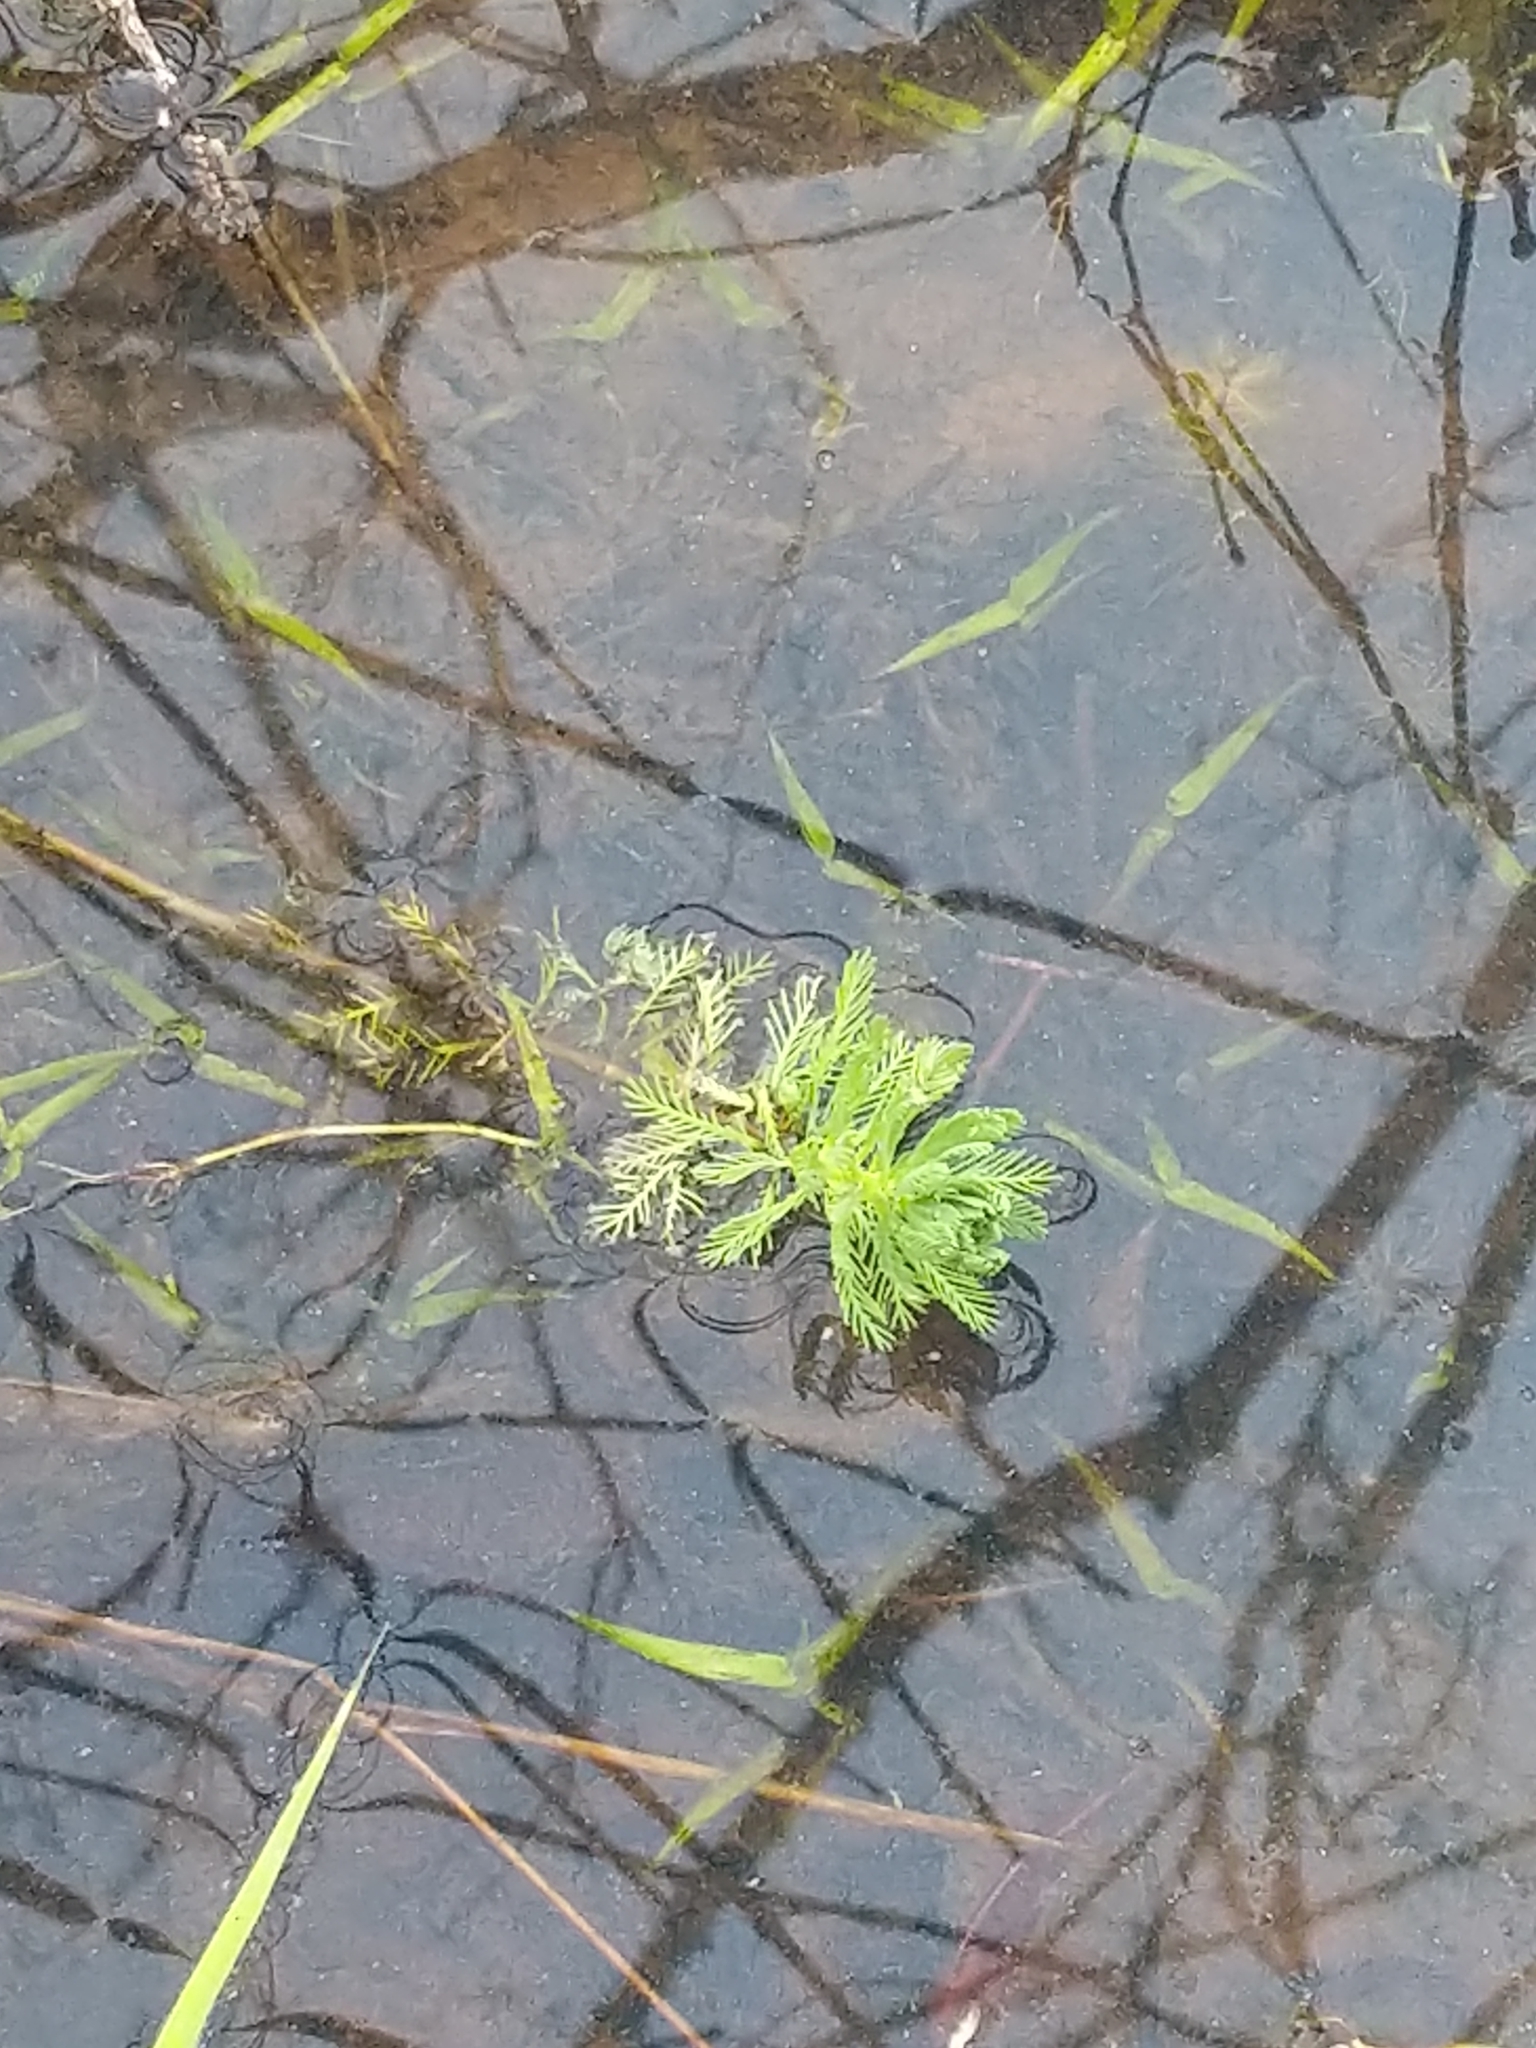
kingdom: Plantae
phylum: Tracheophyta
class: Magnoliopsida
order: Saxifragales
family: Haloragaceae
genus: Myriophyllum
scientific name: Myriophyllum aquaticum
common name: Parrot's feather
